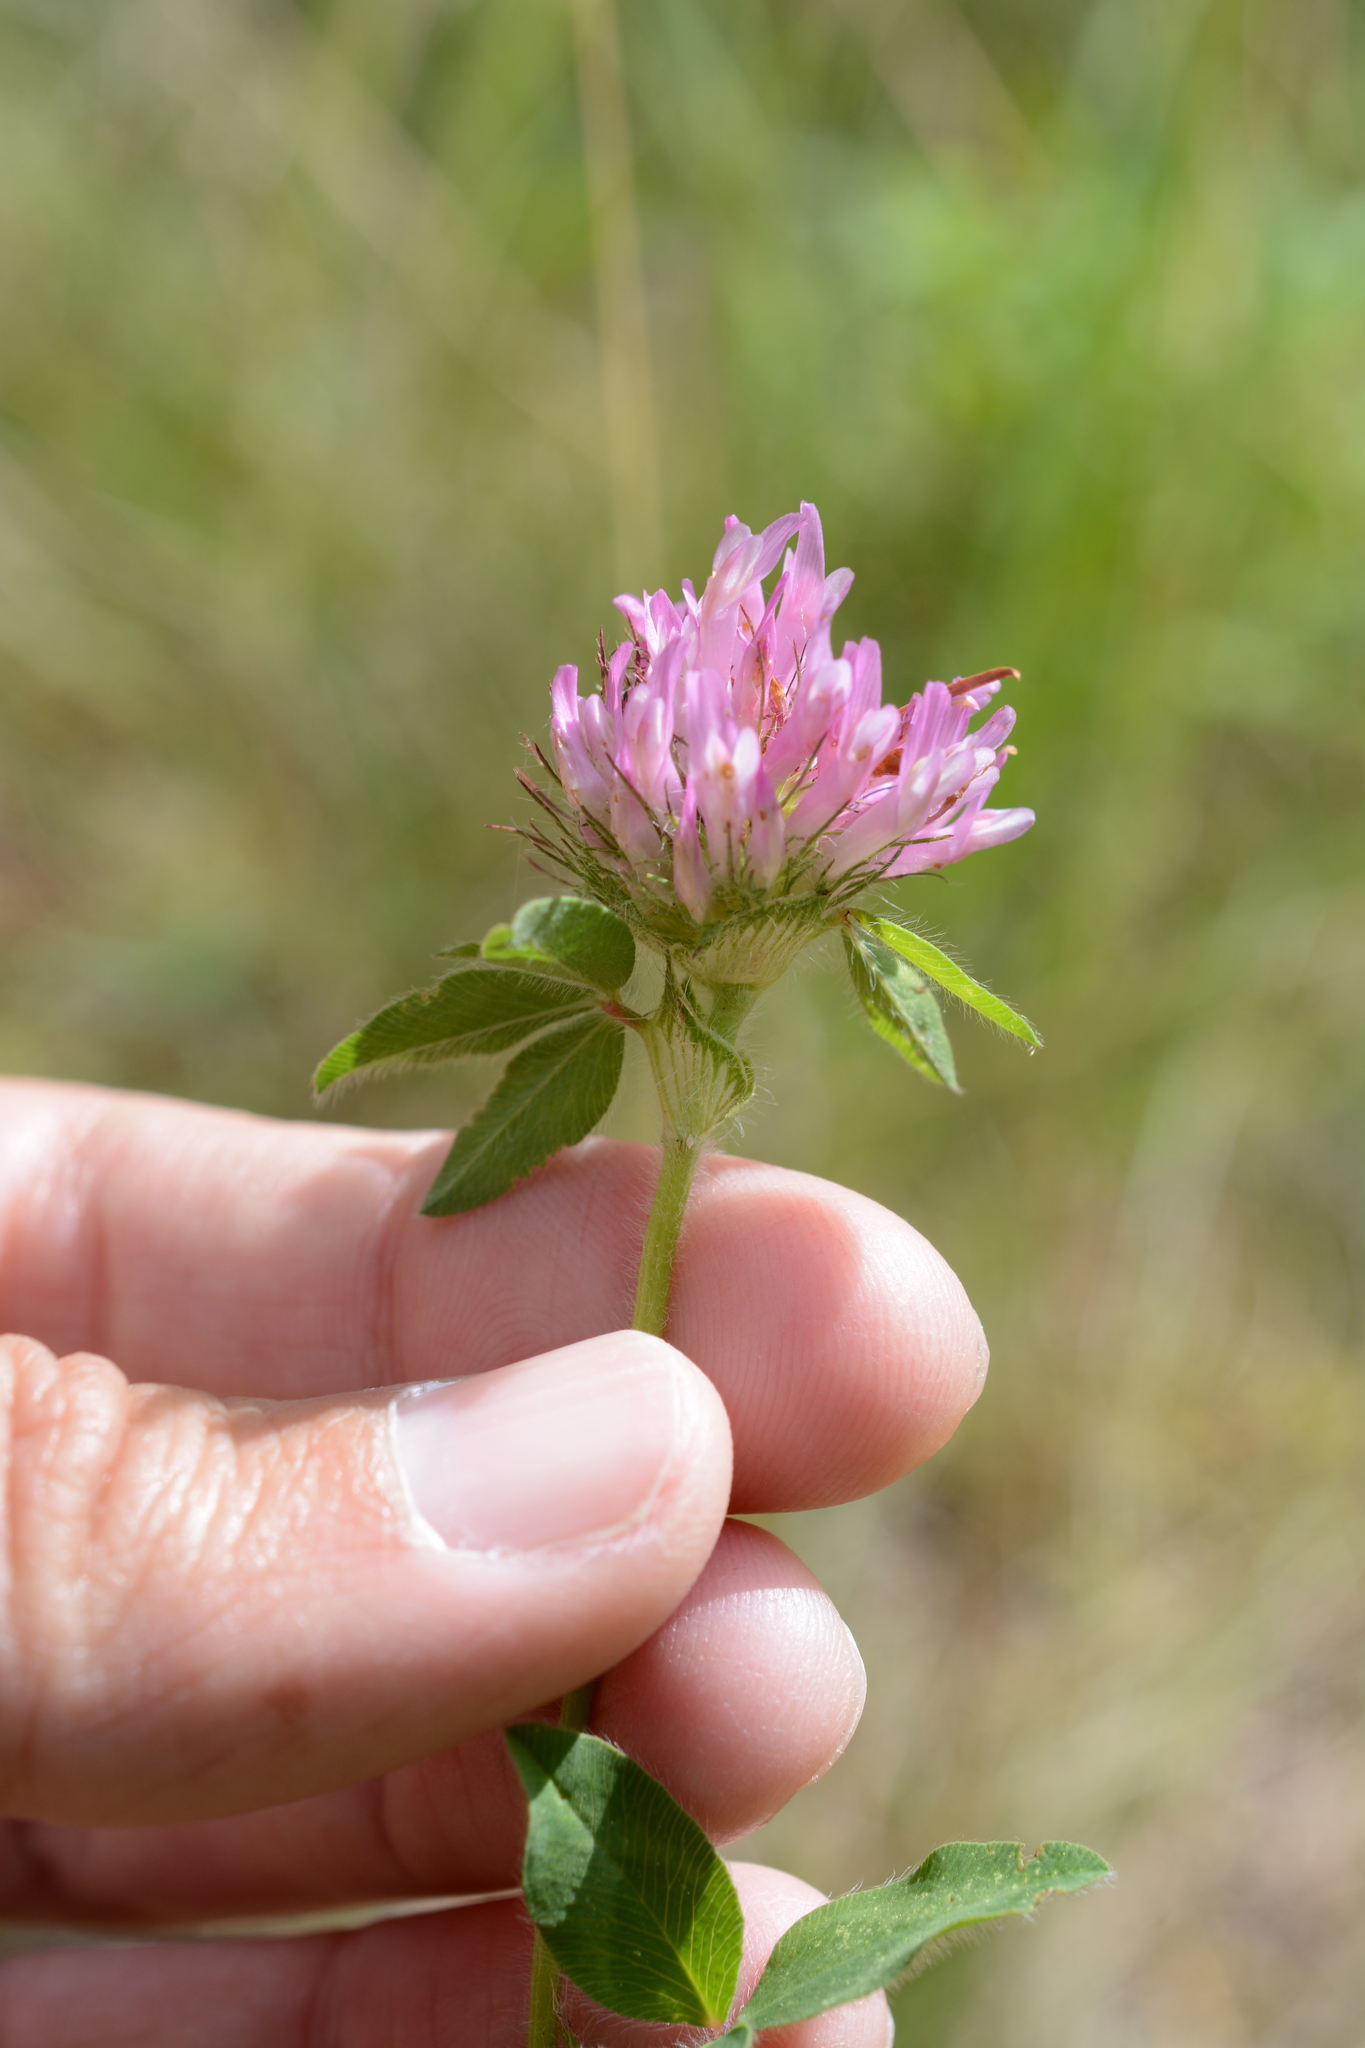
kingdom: Plantae
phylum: Tracheophyta
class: Magnoliopsida
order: Fabales
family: Fabaceae
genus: Trifolium
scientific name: Trifolium pratense
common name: Red clover
